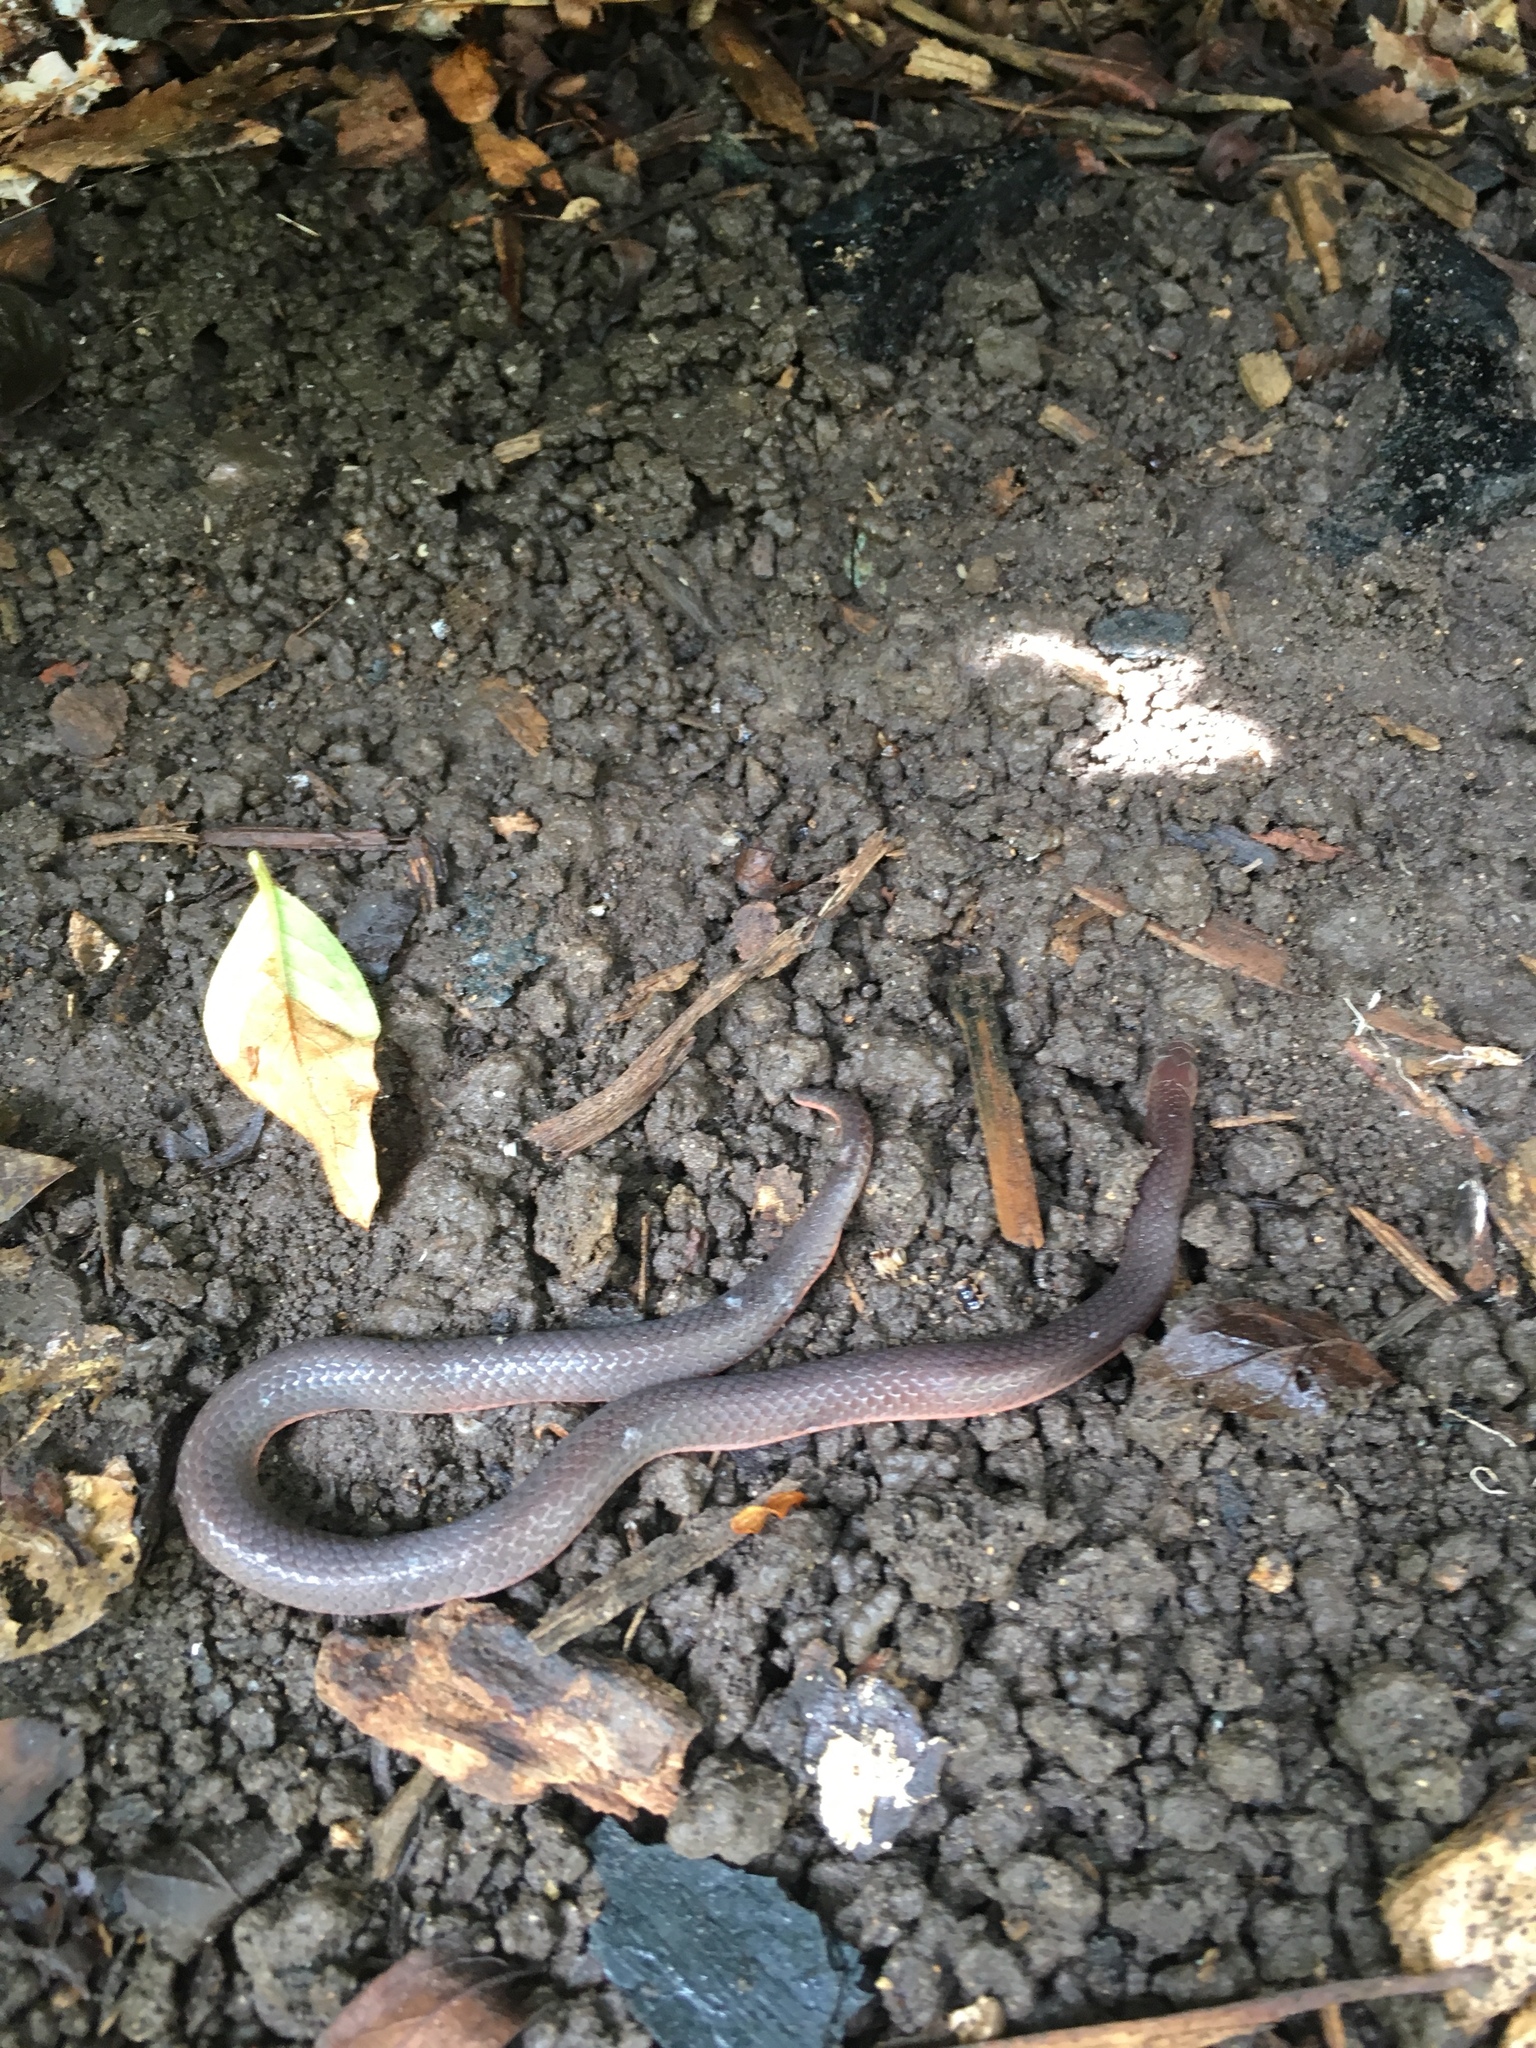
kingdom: Animalia
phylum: Chordata
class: Squamata
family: Colubridae
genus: Carphophis
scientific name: Carphophis amoenus
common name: Eastern worm snake
